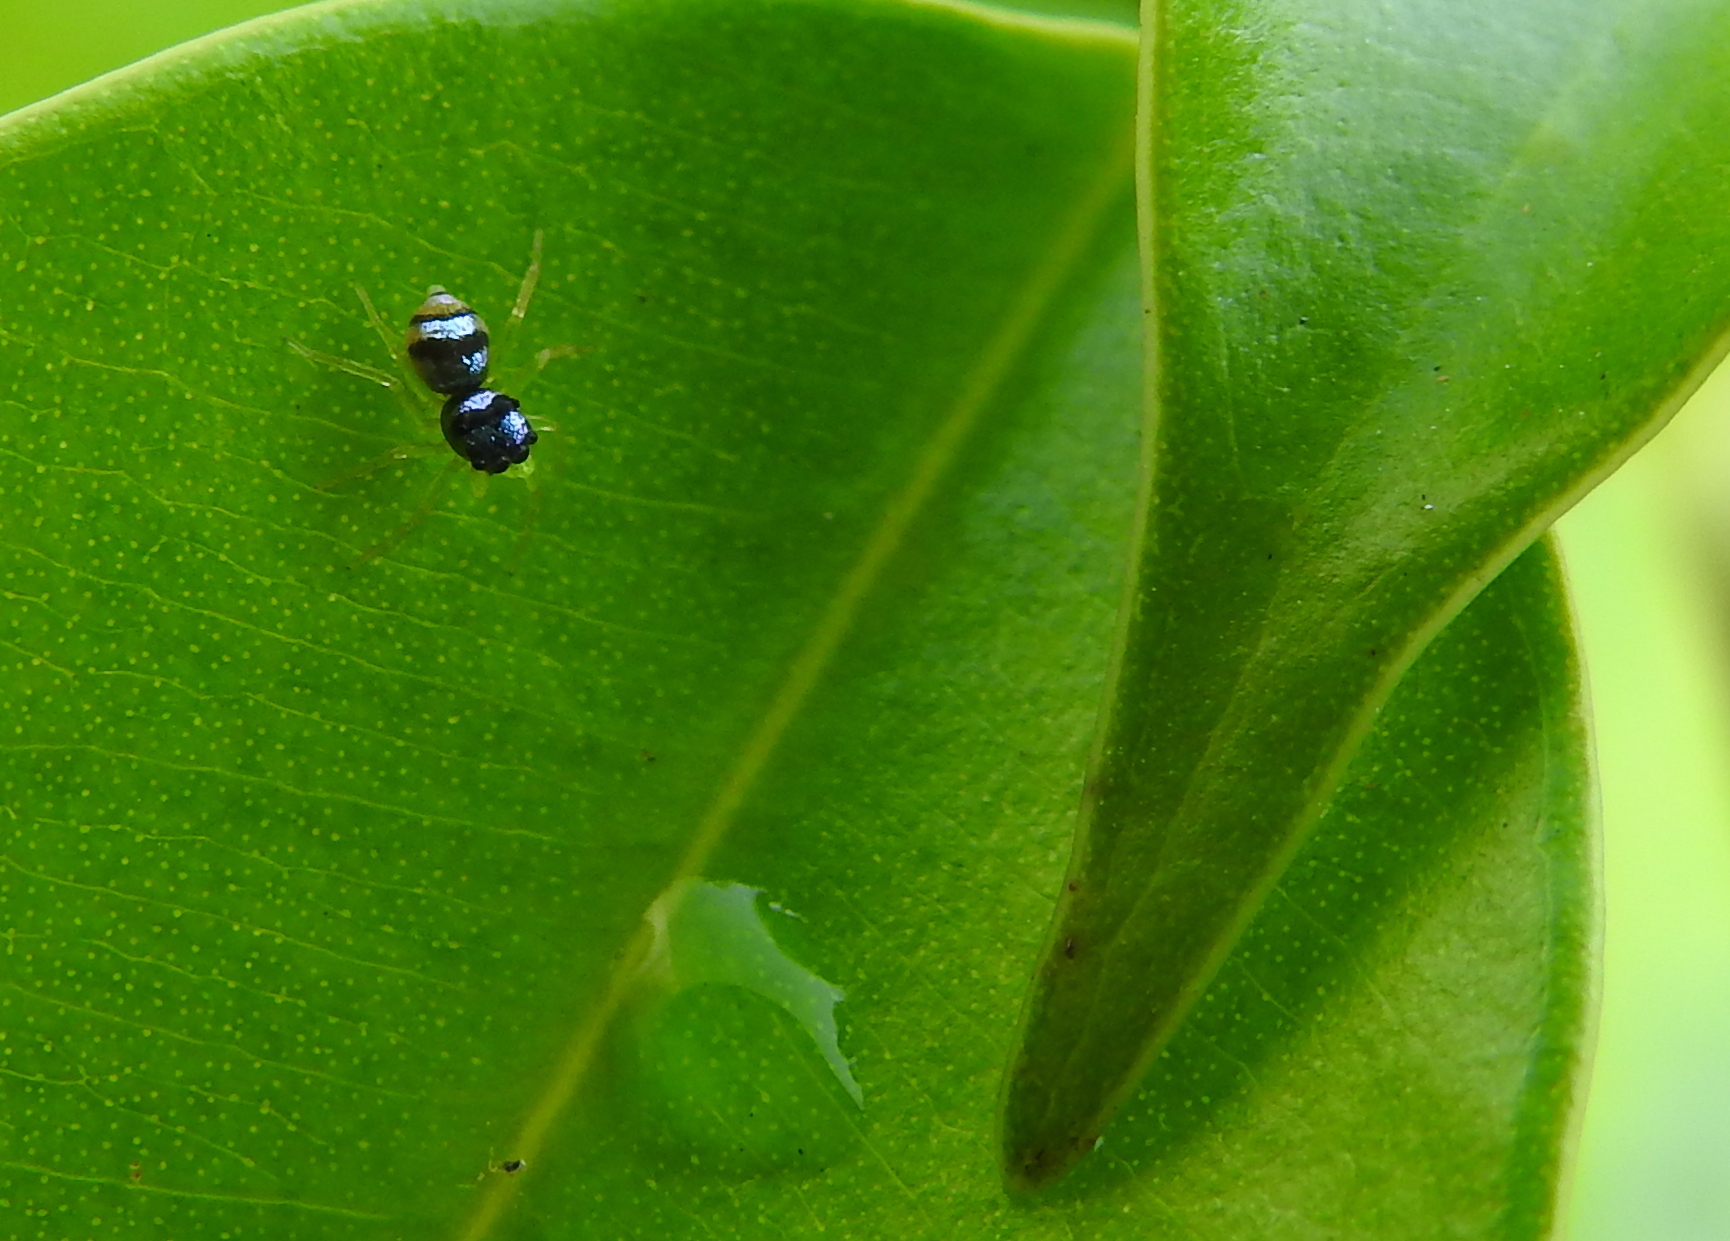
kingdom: Animalia
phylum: Arthropoda
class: Arachnida
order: Araneae
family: Salticidae
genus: Phintella
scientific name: Phintella vittata
